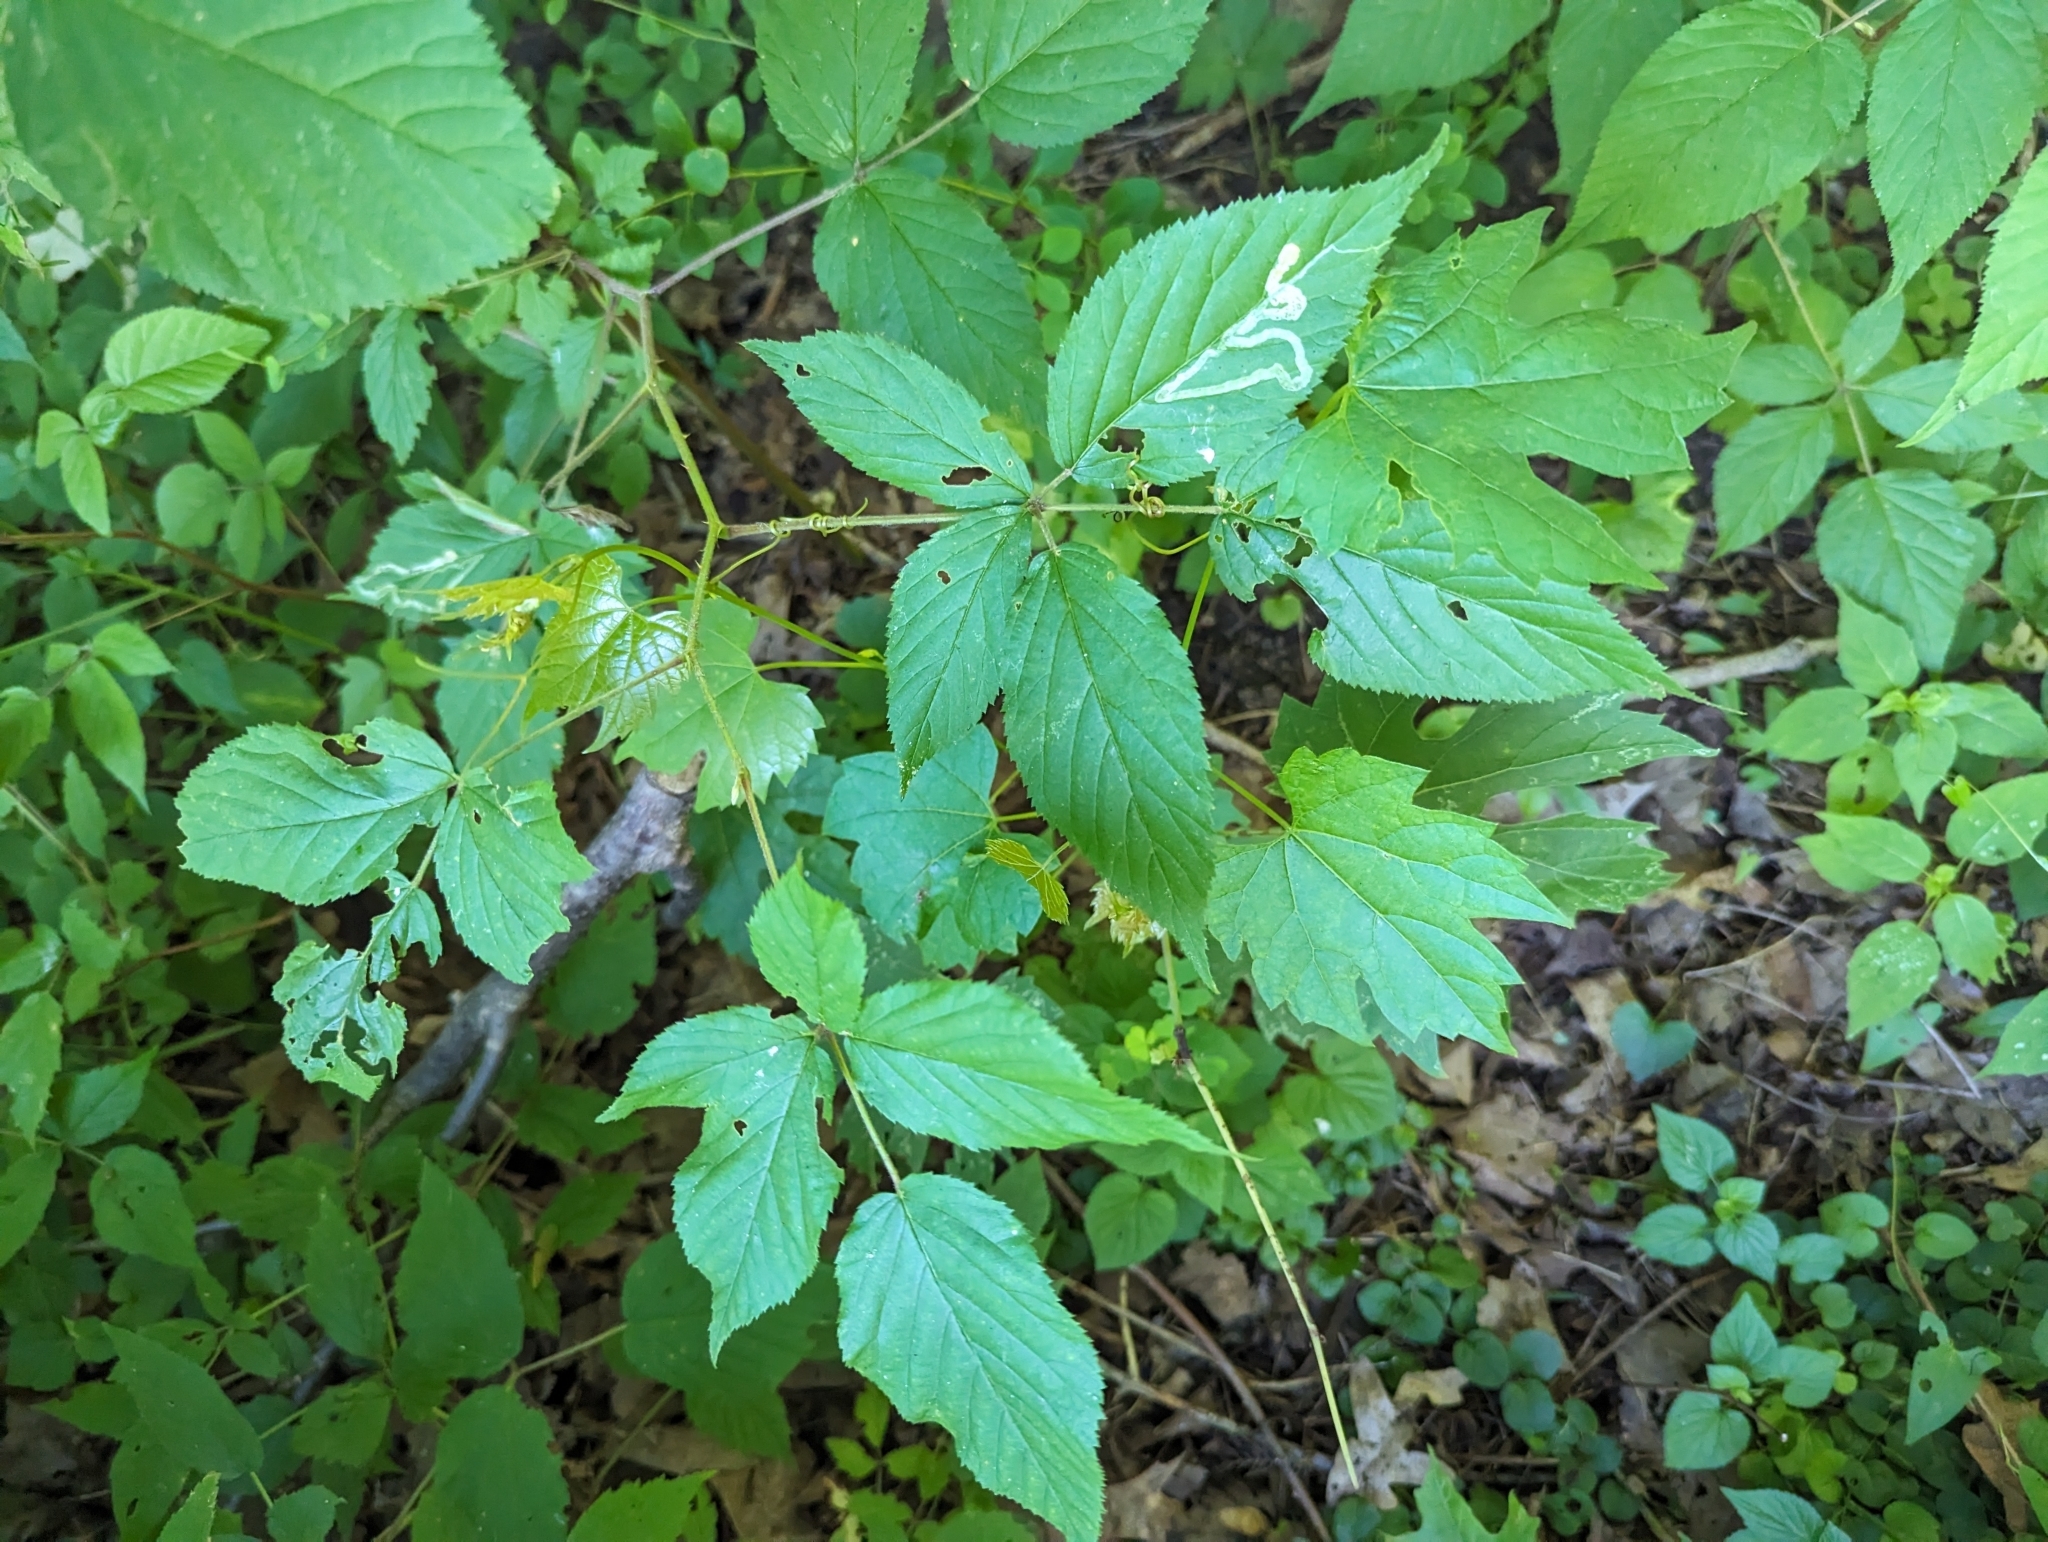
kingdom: Plantae
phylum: Tracheophyta
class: Magnoliopsida
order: Rosales
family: Rosaceae
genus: Rubus
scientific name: Rubus allegheniensis
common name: Allegheny blackberry
